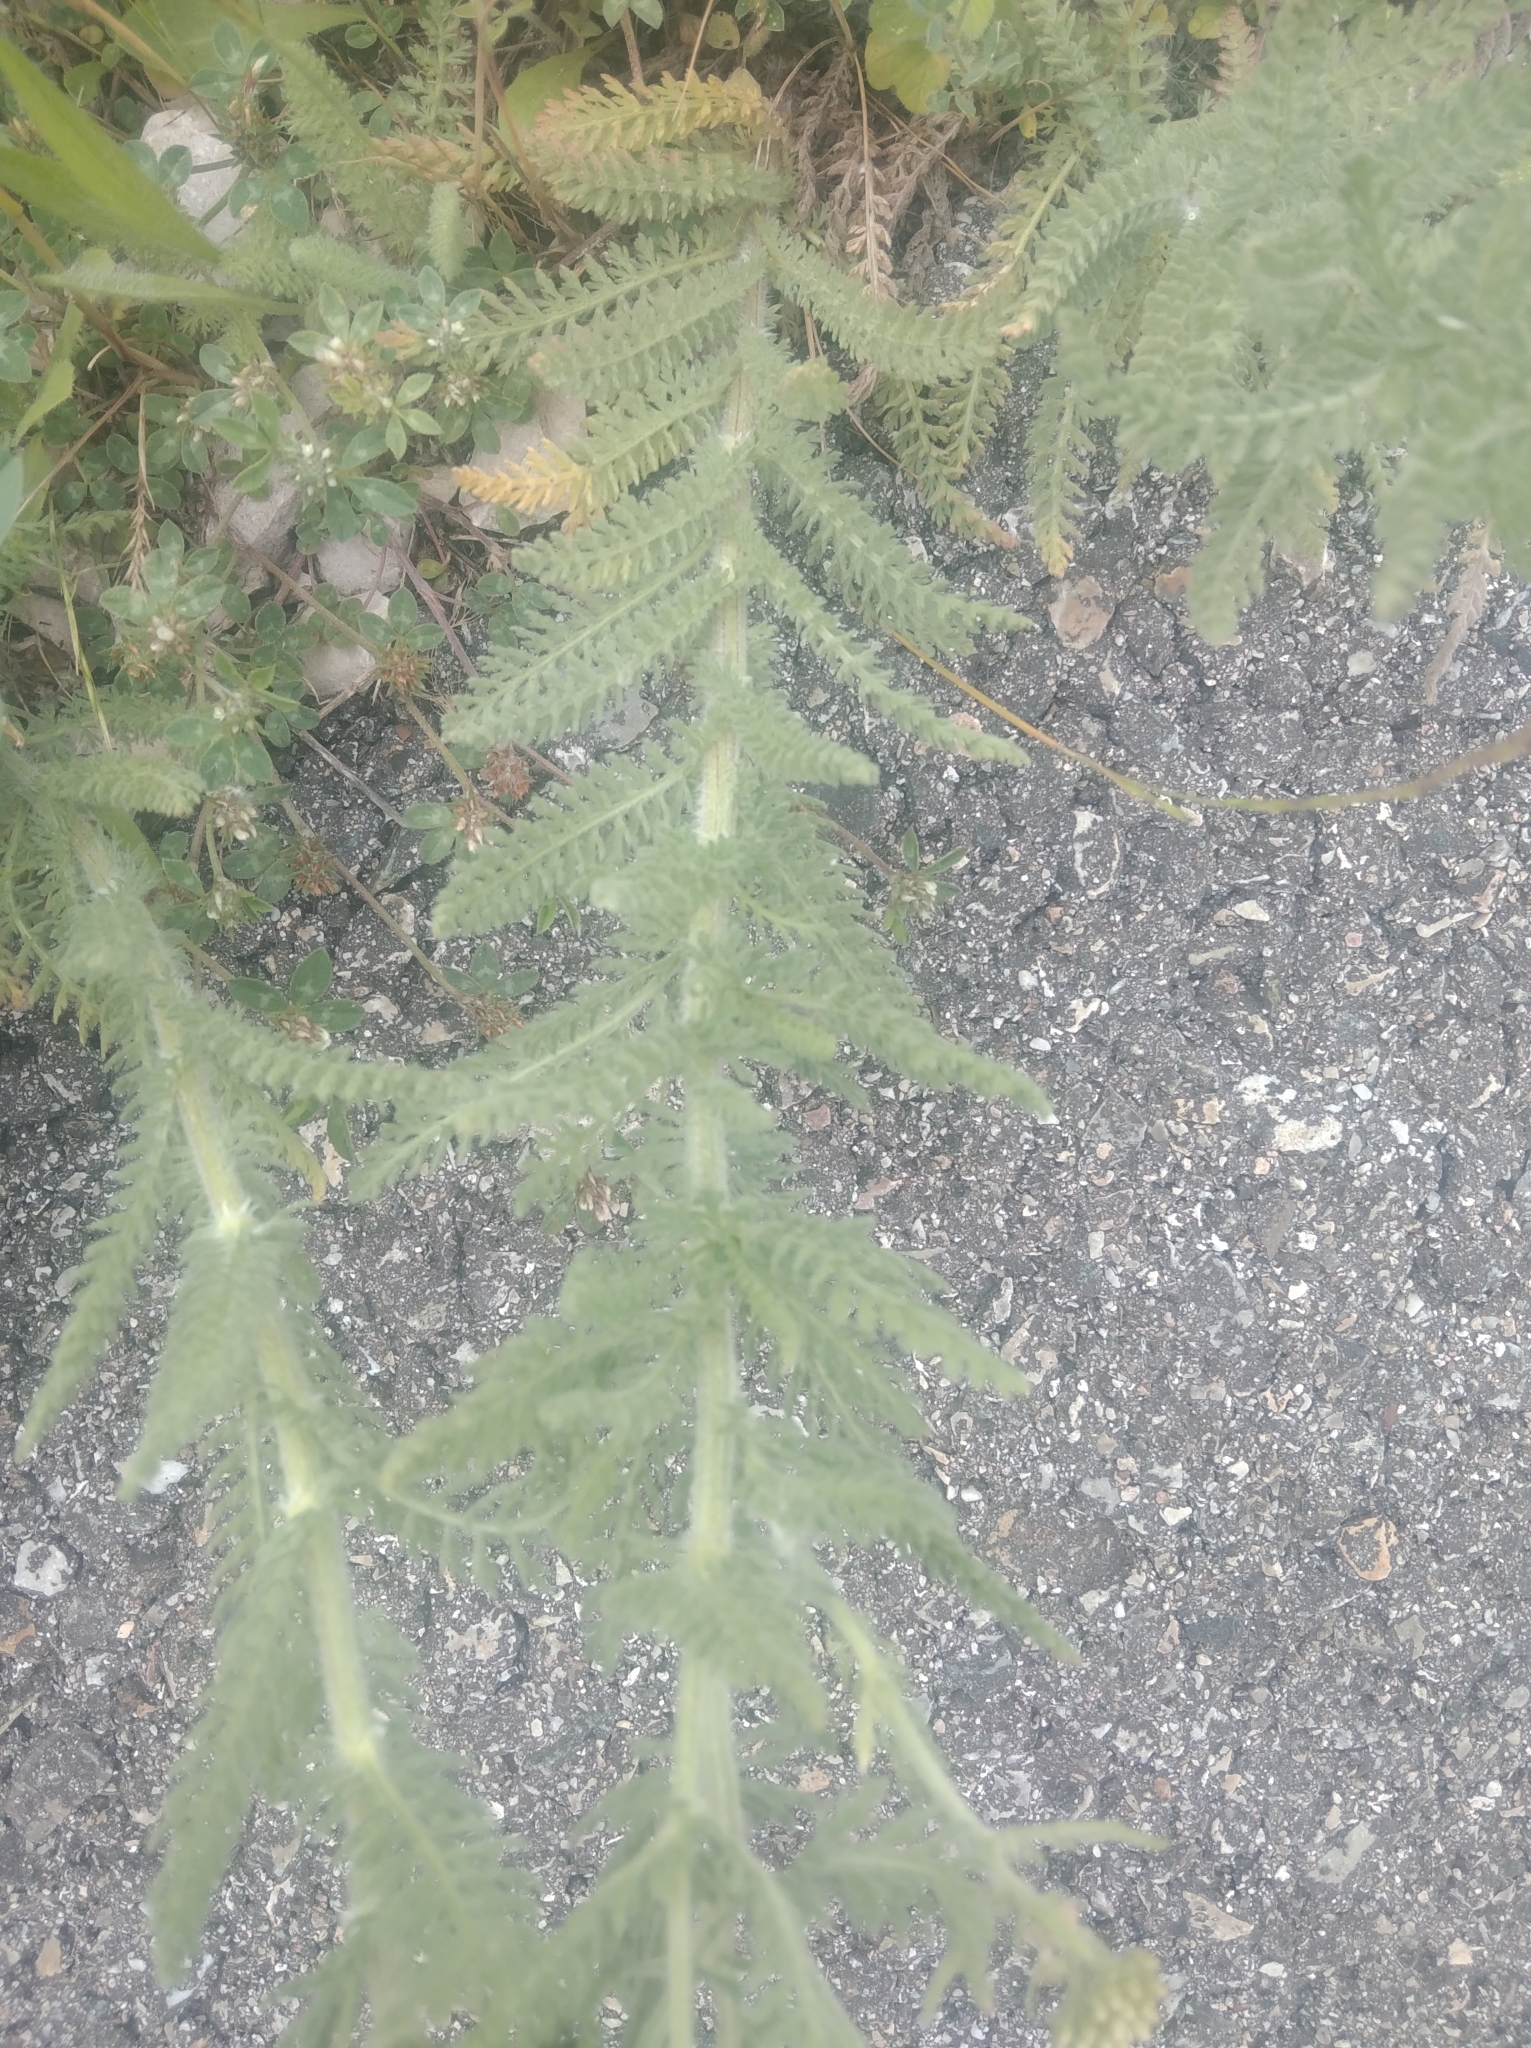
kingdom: Plantae
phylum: Tracheophyta
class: Magnoliopsida
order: Asterales
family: Asteraceae
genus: Achillea
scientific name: Achillea millefolium
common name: Yarrow
